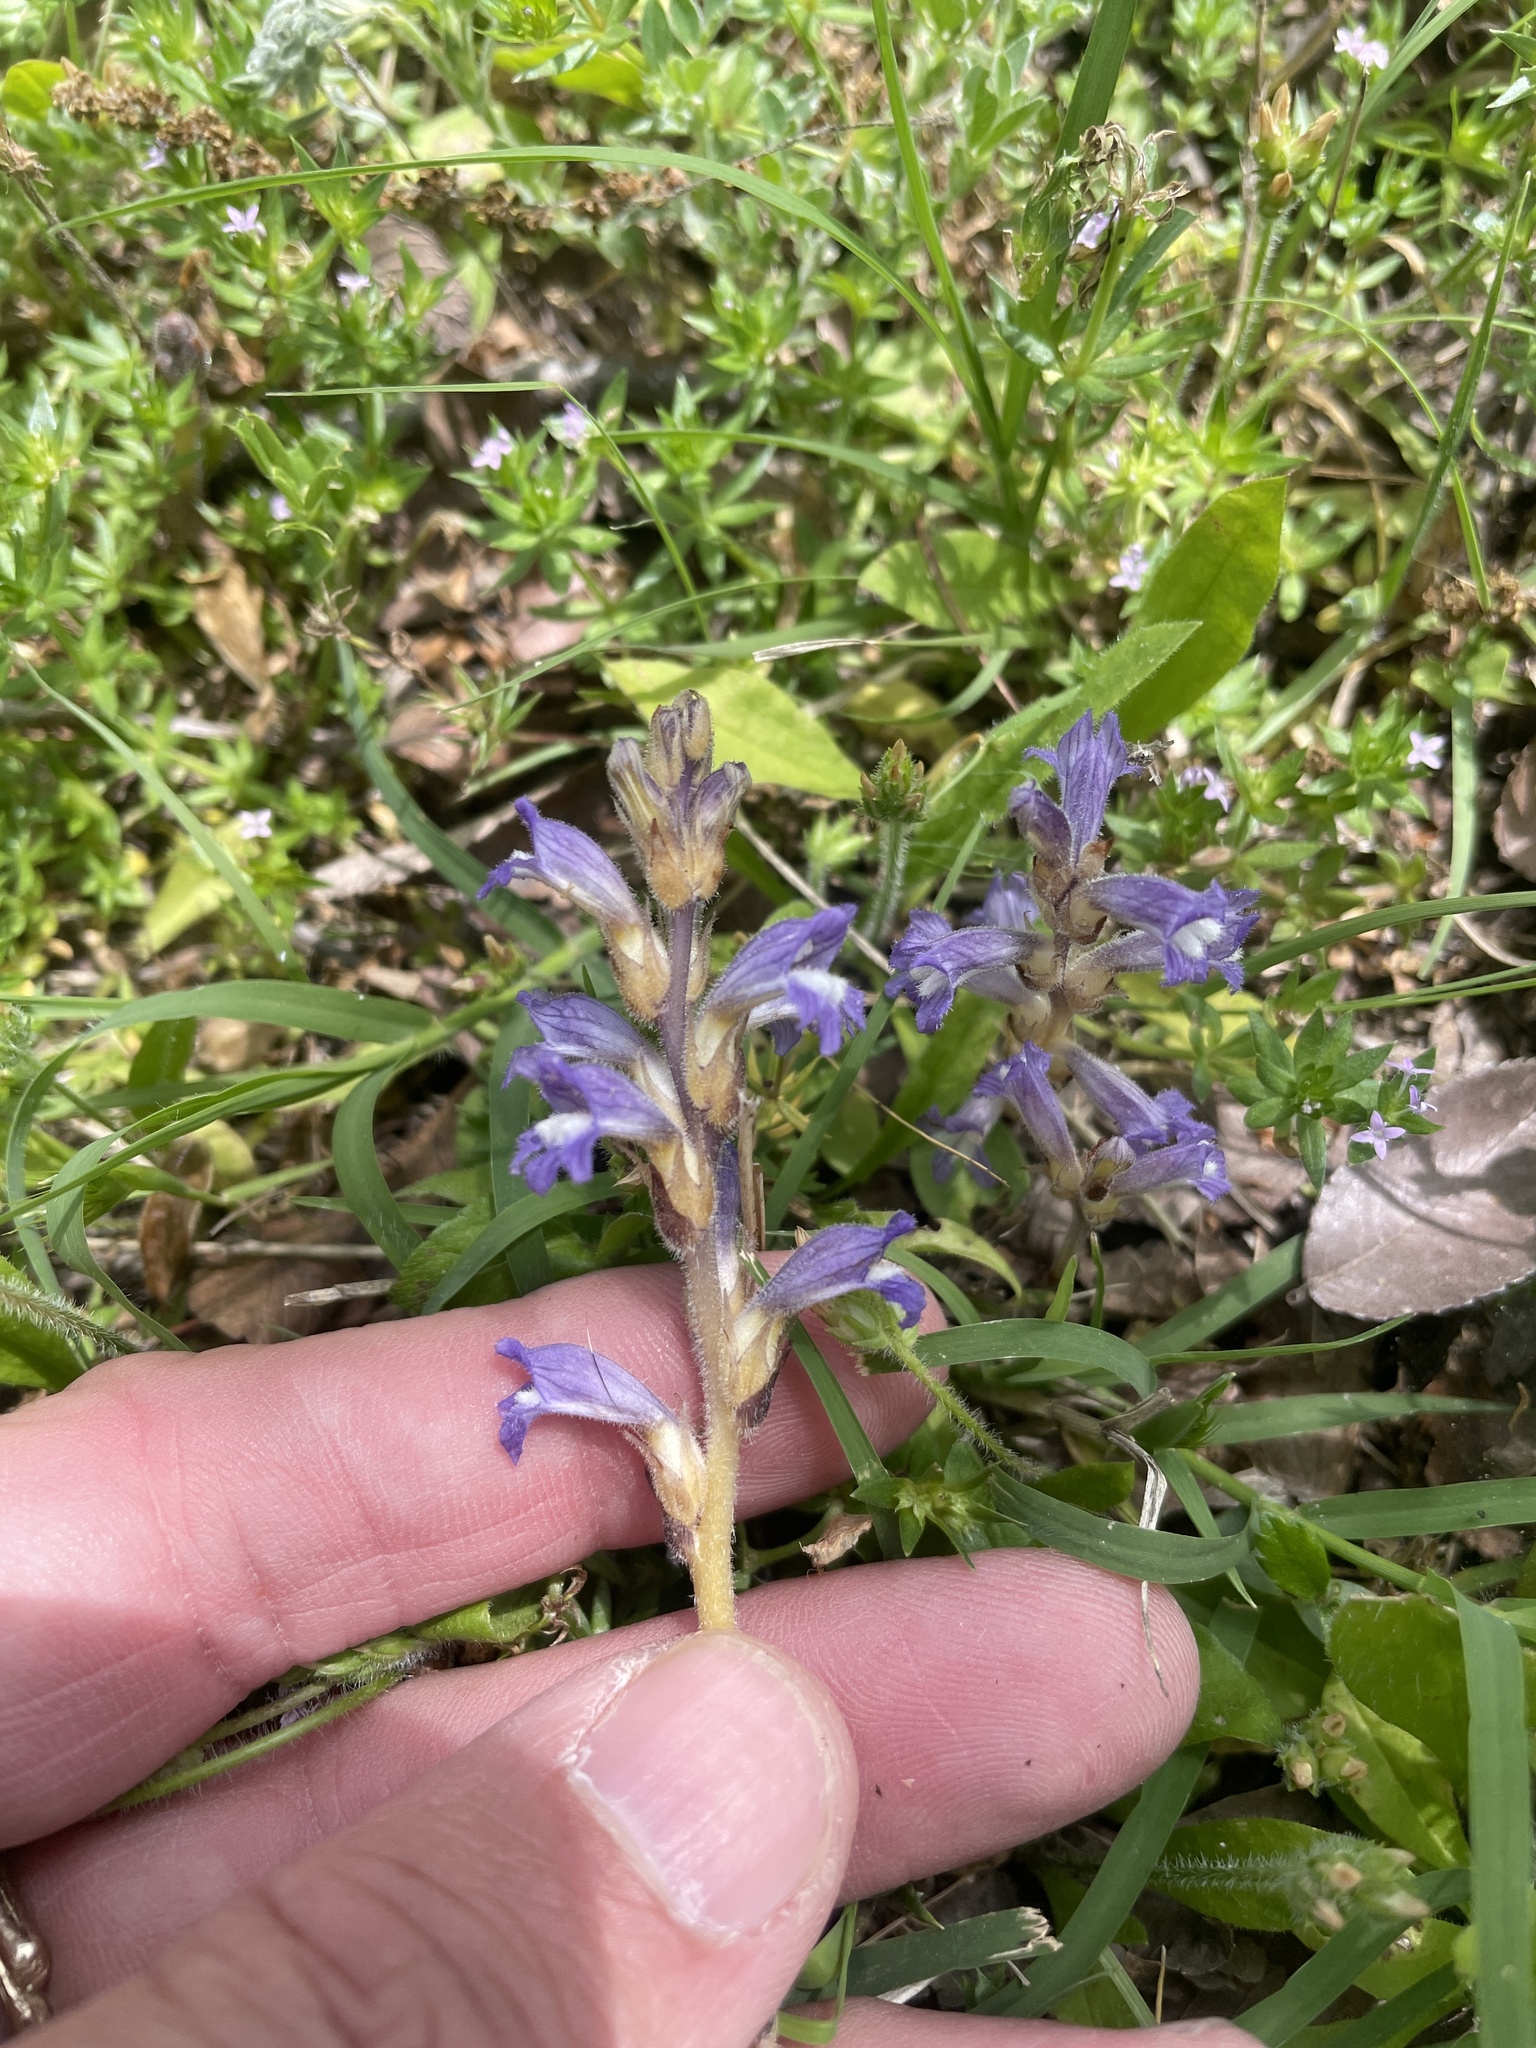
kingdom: Plantae
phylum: Tracheophyta
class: Magnoliopsida
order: Lamiales
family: Orobanchaceae
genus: Phelipanche
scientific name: Phelipanche mutelii
